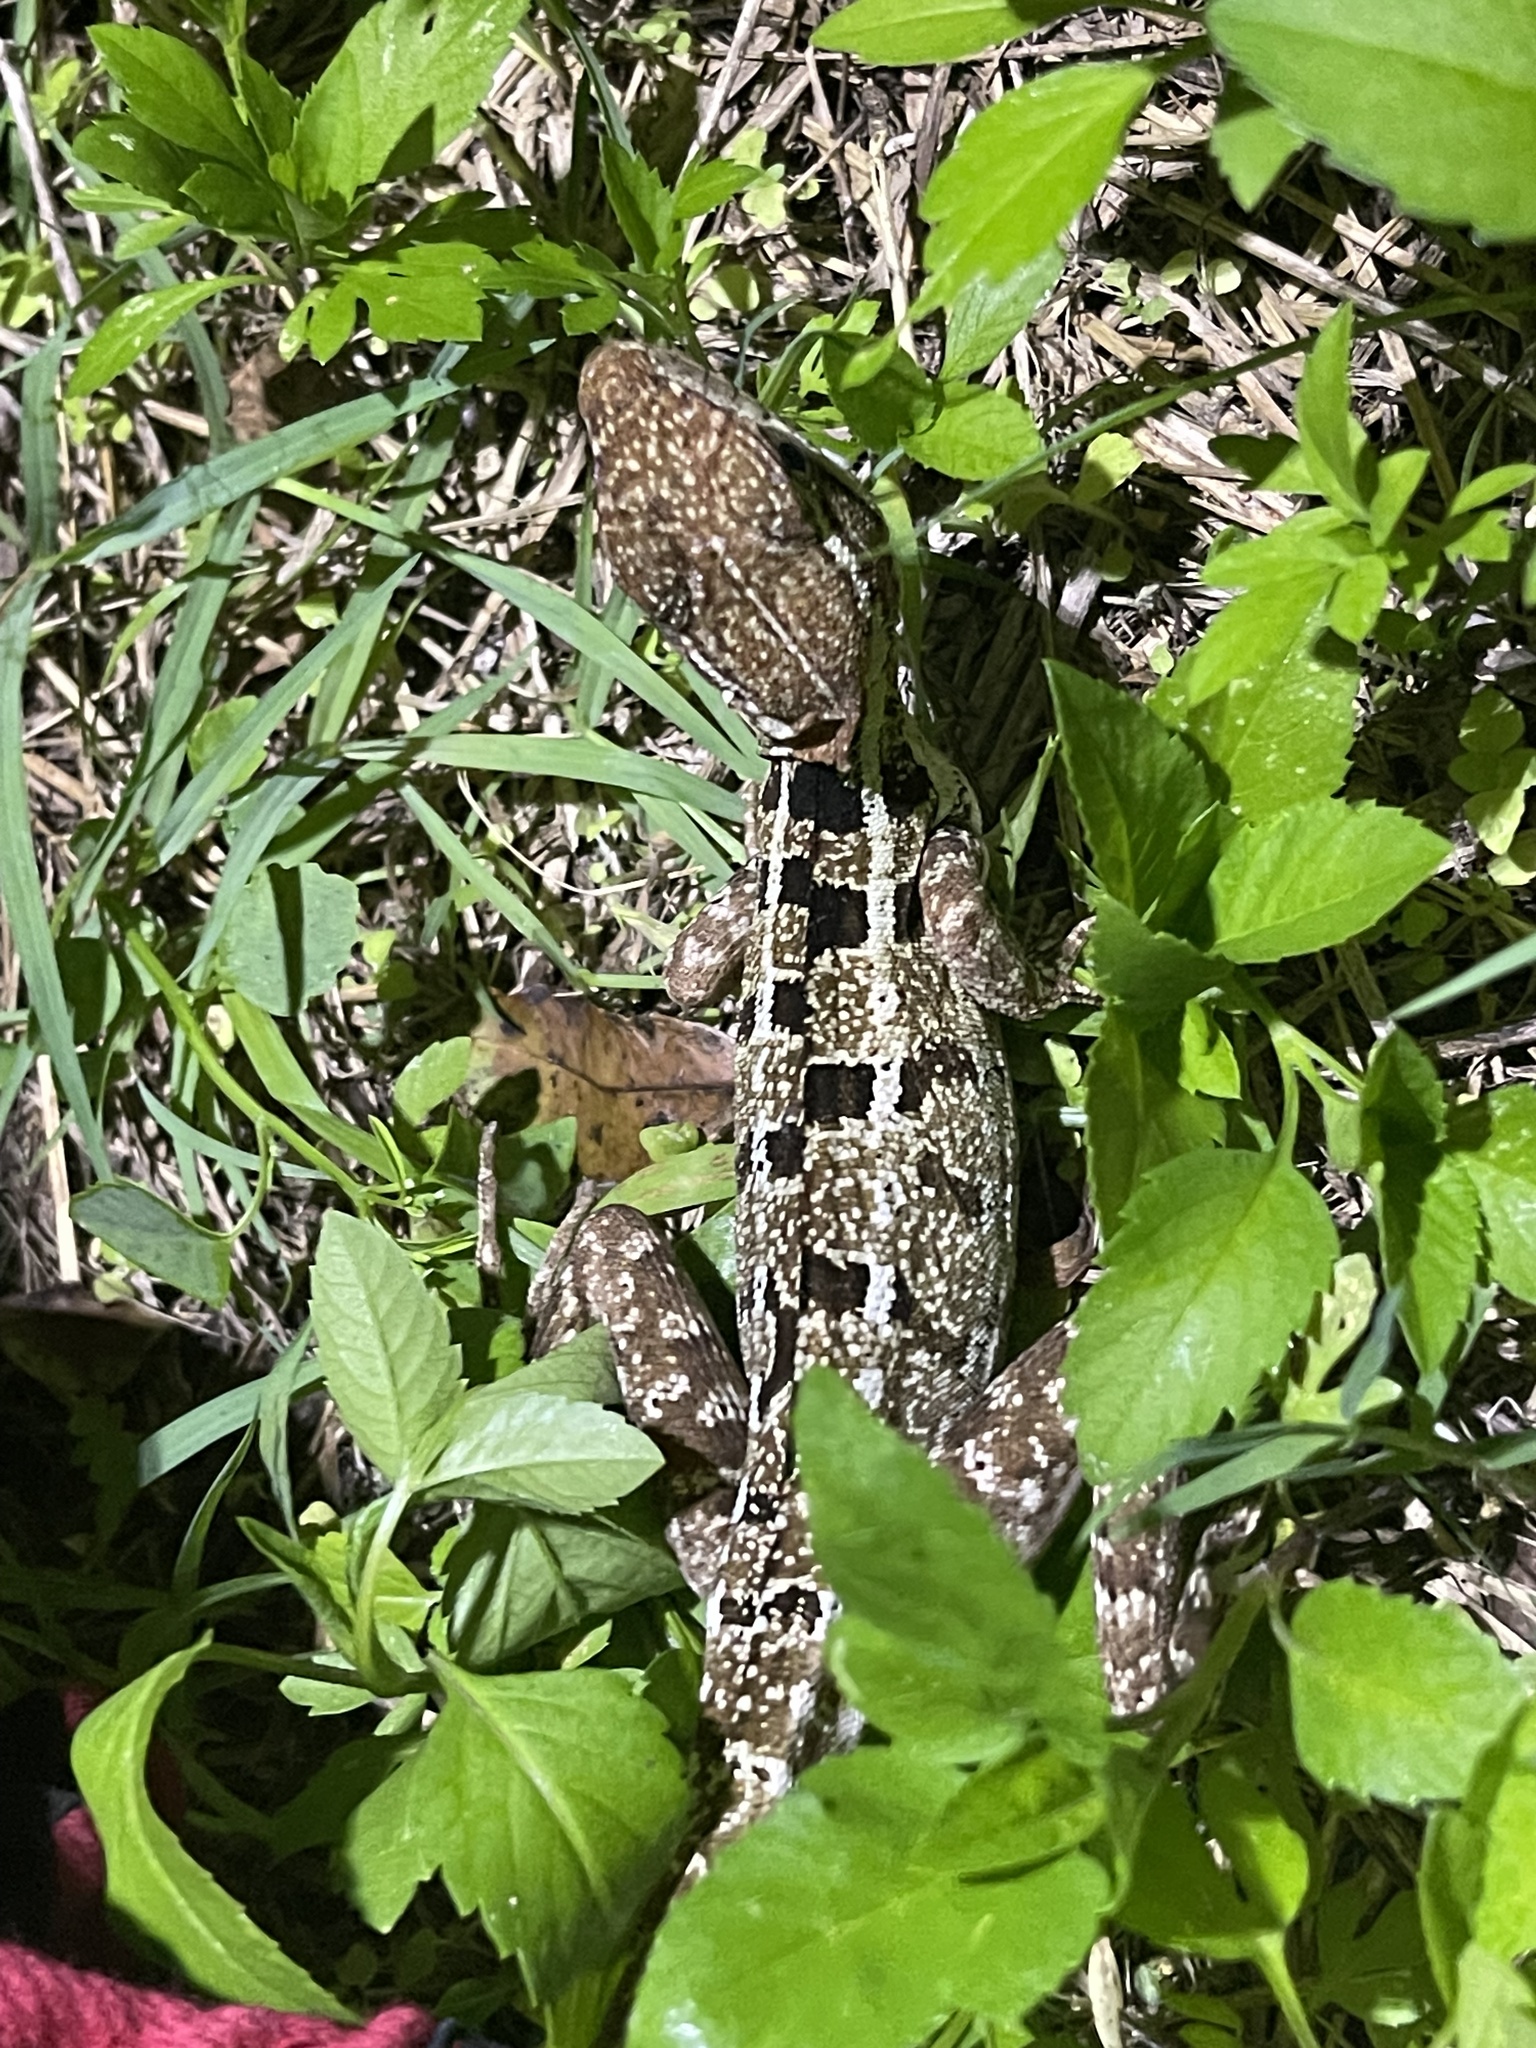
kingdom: Animalia
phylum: Chordata
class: Squamata
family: Corytophanidae
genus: Basiliscus
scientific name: Basiliscus vittatus
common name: Brown basilisk
